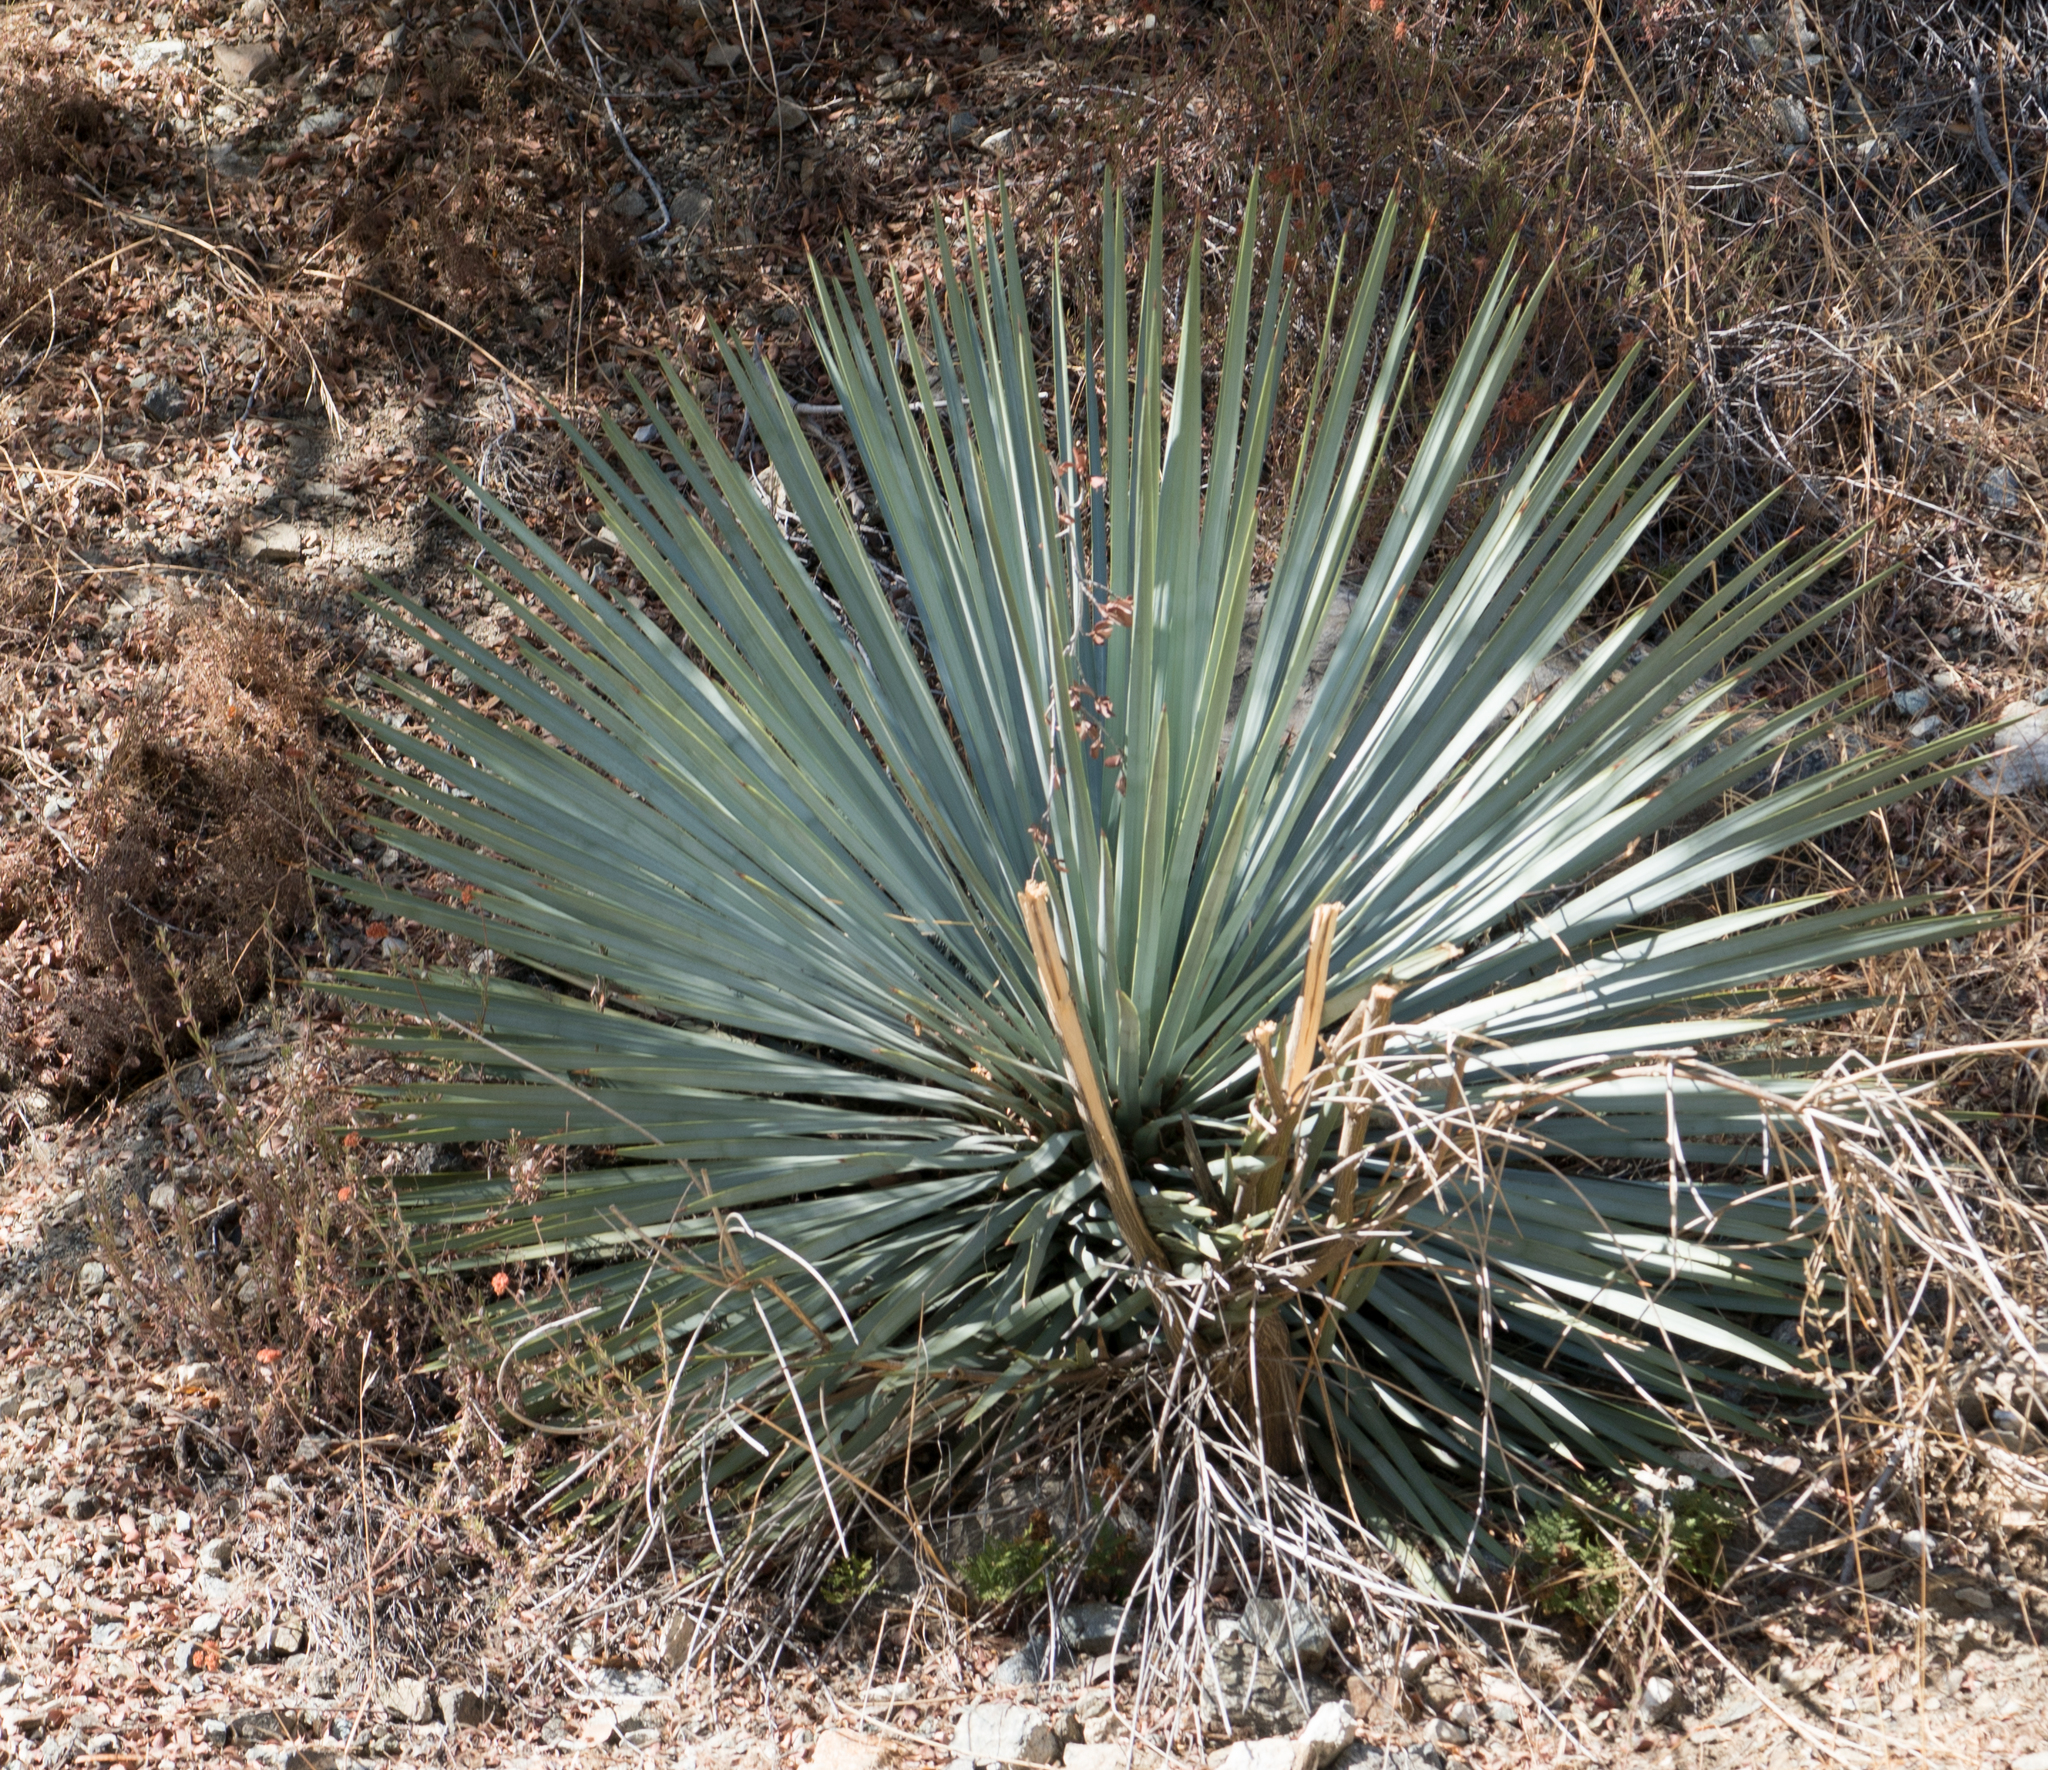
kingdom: Plantae
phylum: Tracheophyta
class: Liliopsida
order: Asparagales
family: Asparagaceae
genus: Hesperoyucca
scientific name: Hesperoyucca whipplei
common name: Our lord's-candle
